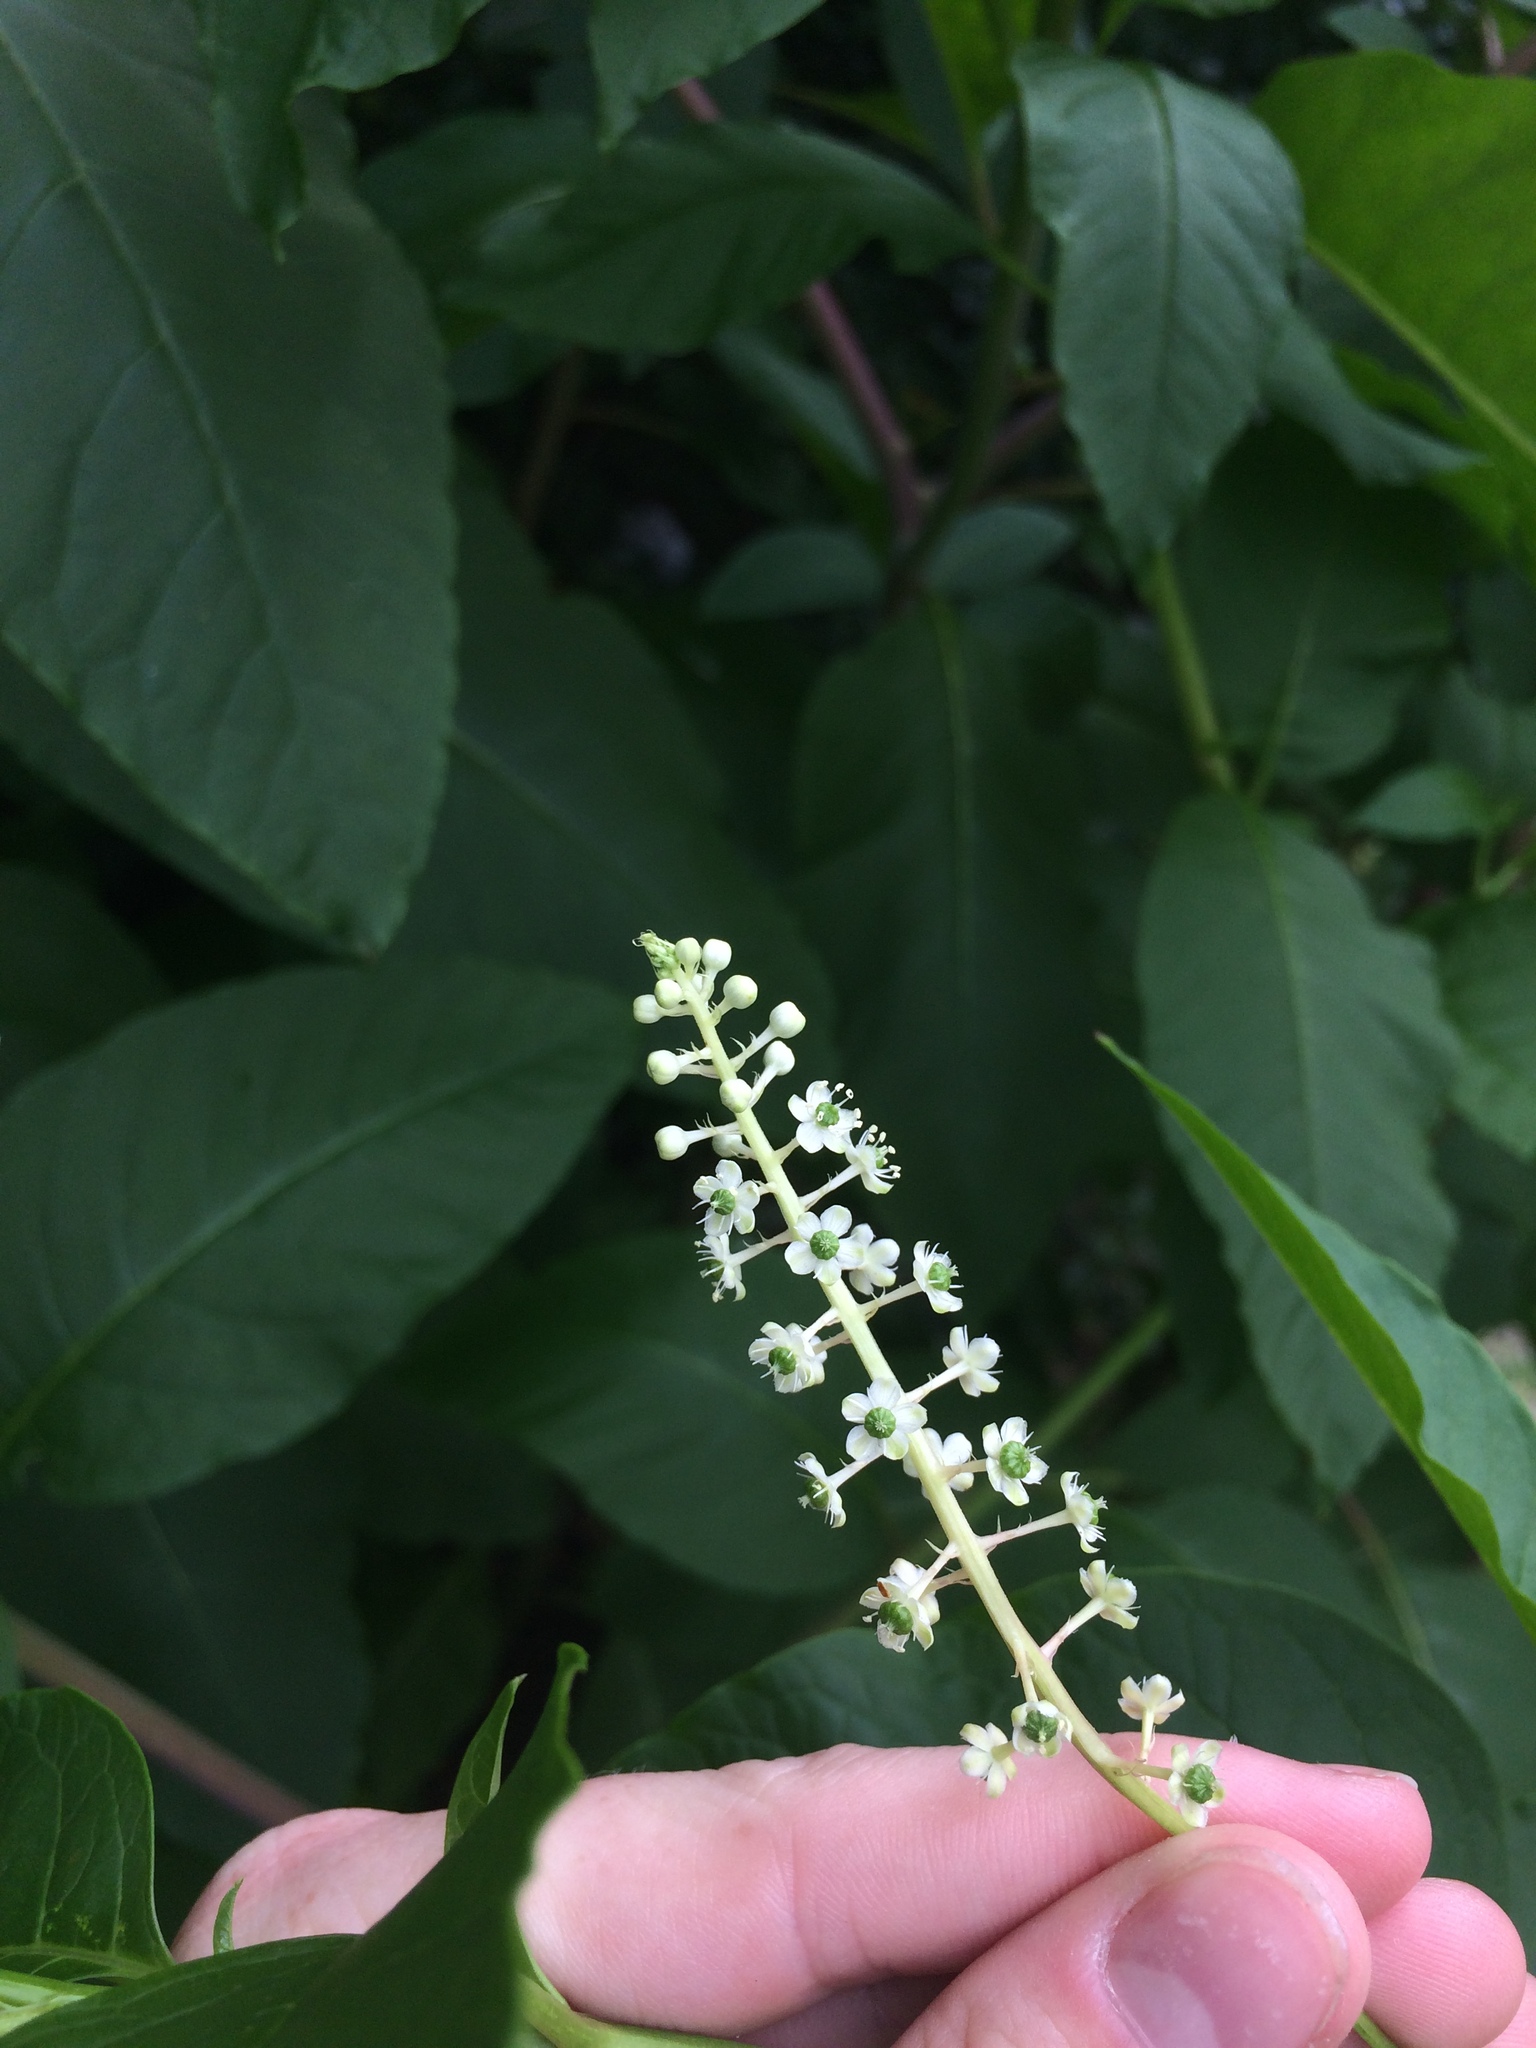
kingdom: Plantae
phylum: Tracheophyta
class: Magnoliopsida
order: Caryophyllales
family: Phytolaccaceae
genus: Phytolacca
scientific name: Phytolacca americana
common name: American pokeweed
